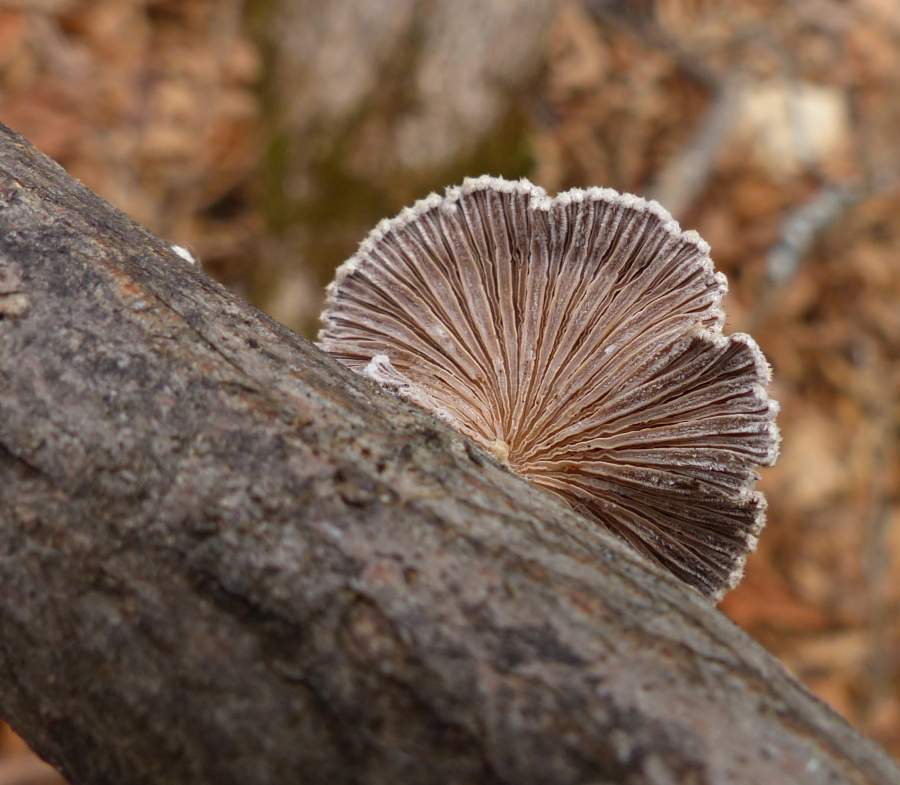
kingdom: Fungi
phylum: Basidiomycota
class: Agaricomycetes
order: Agaricales
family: Schizophyllaceae
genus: Schizophyllum
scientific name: Schizophyllum commune
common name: Common porecrust
